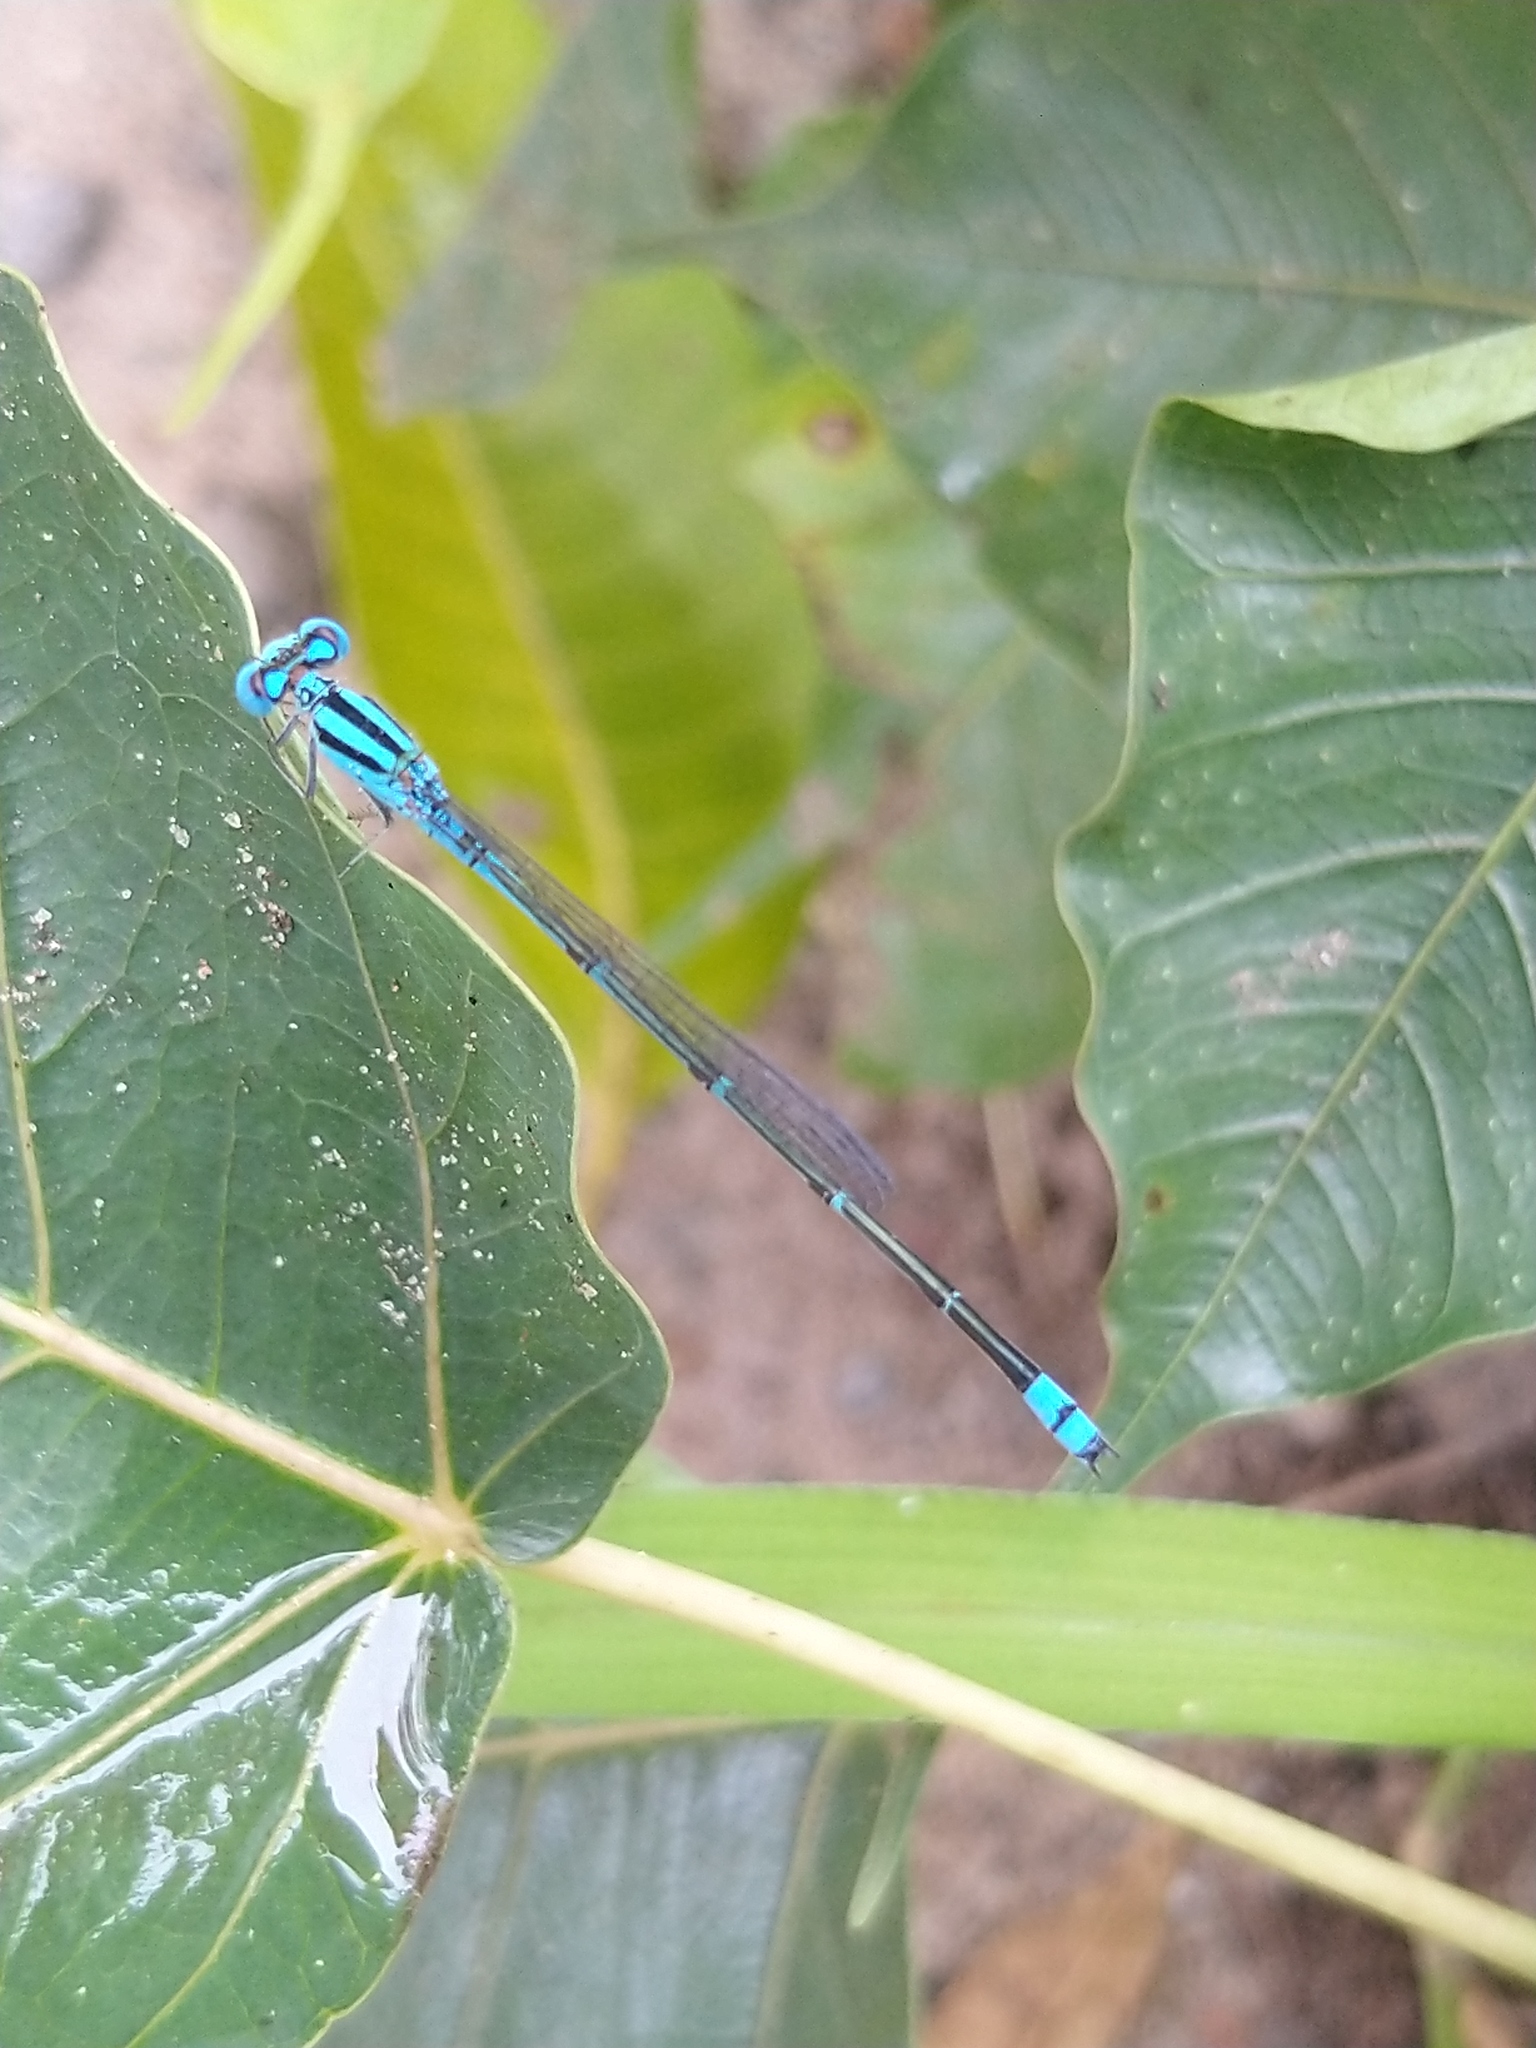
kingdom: Animalia
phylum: Arthropoda
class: Insecta
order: Odonata
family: Coenagrionidae
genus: Pseudagrion
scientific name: Pseudagrion microcephalum
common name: Blue riverdamsel
